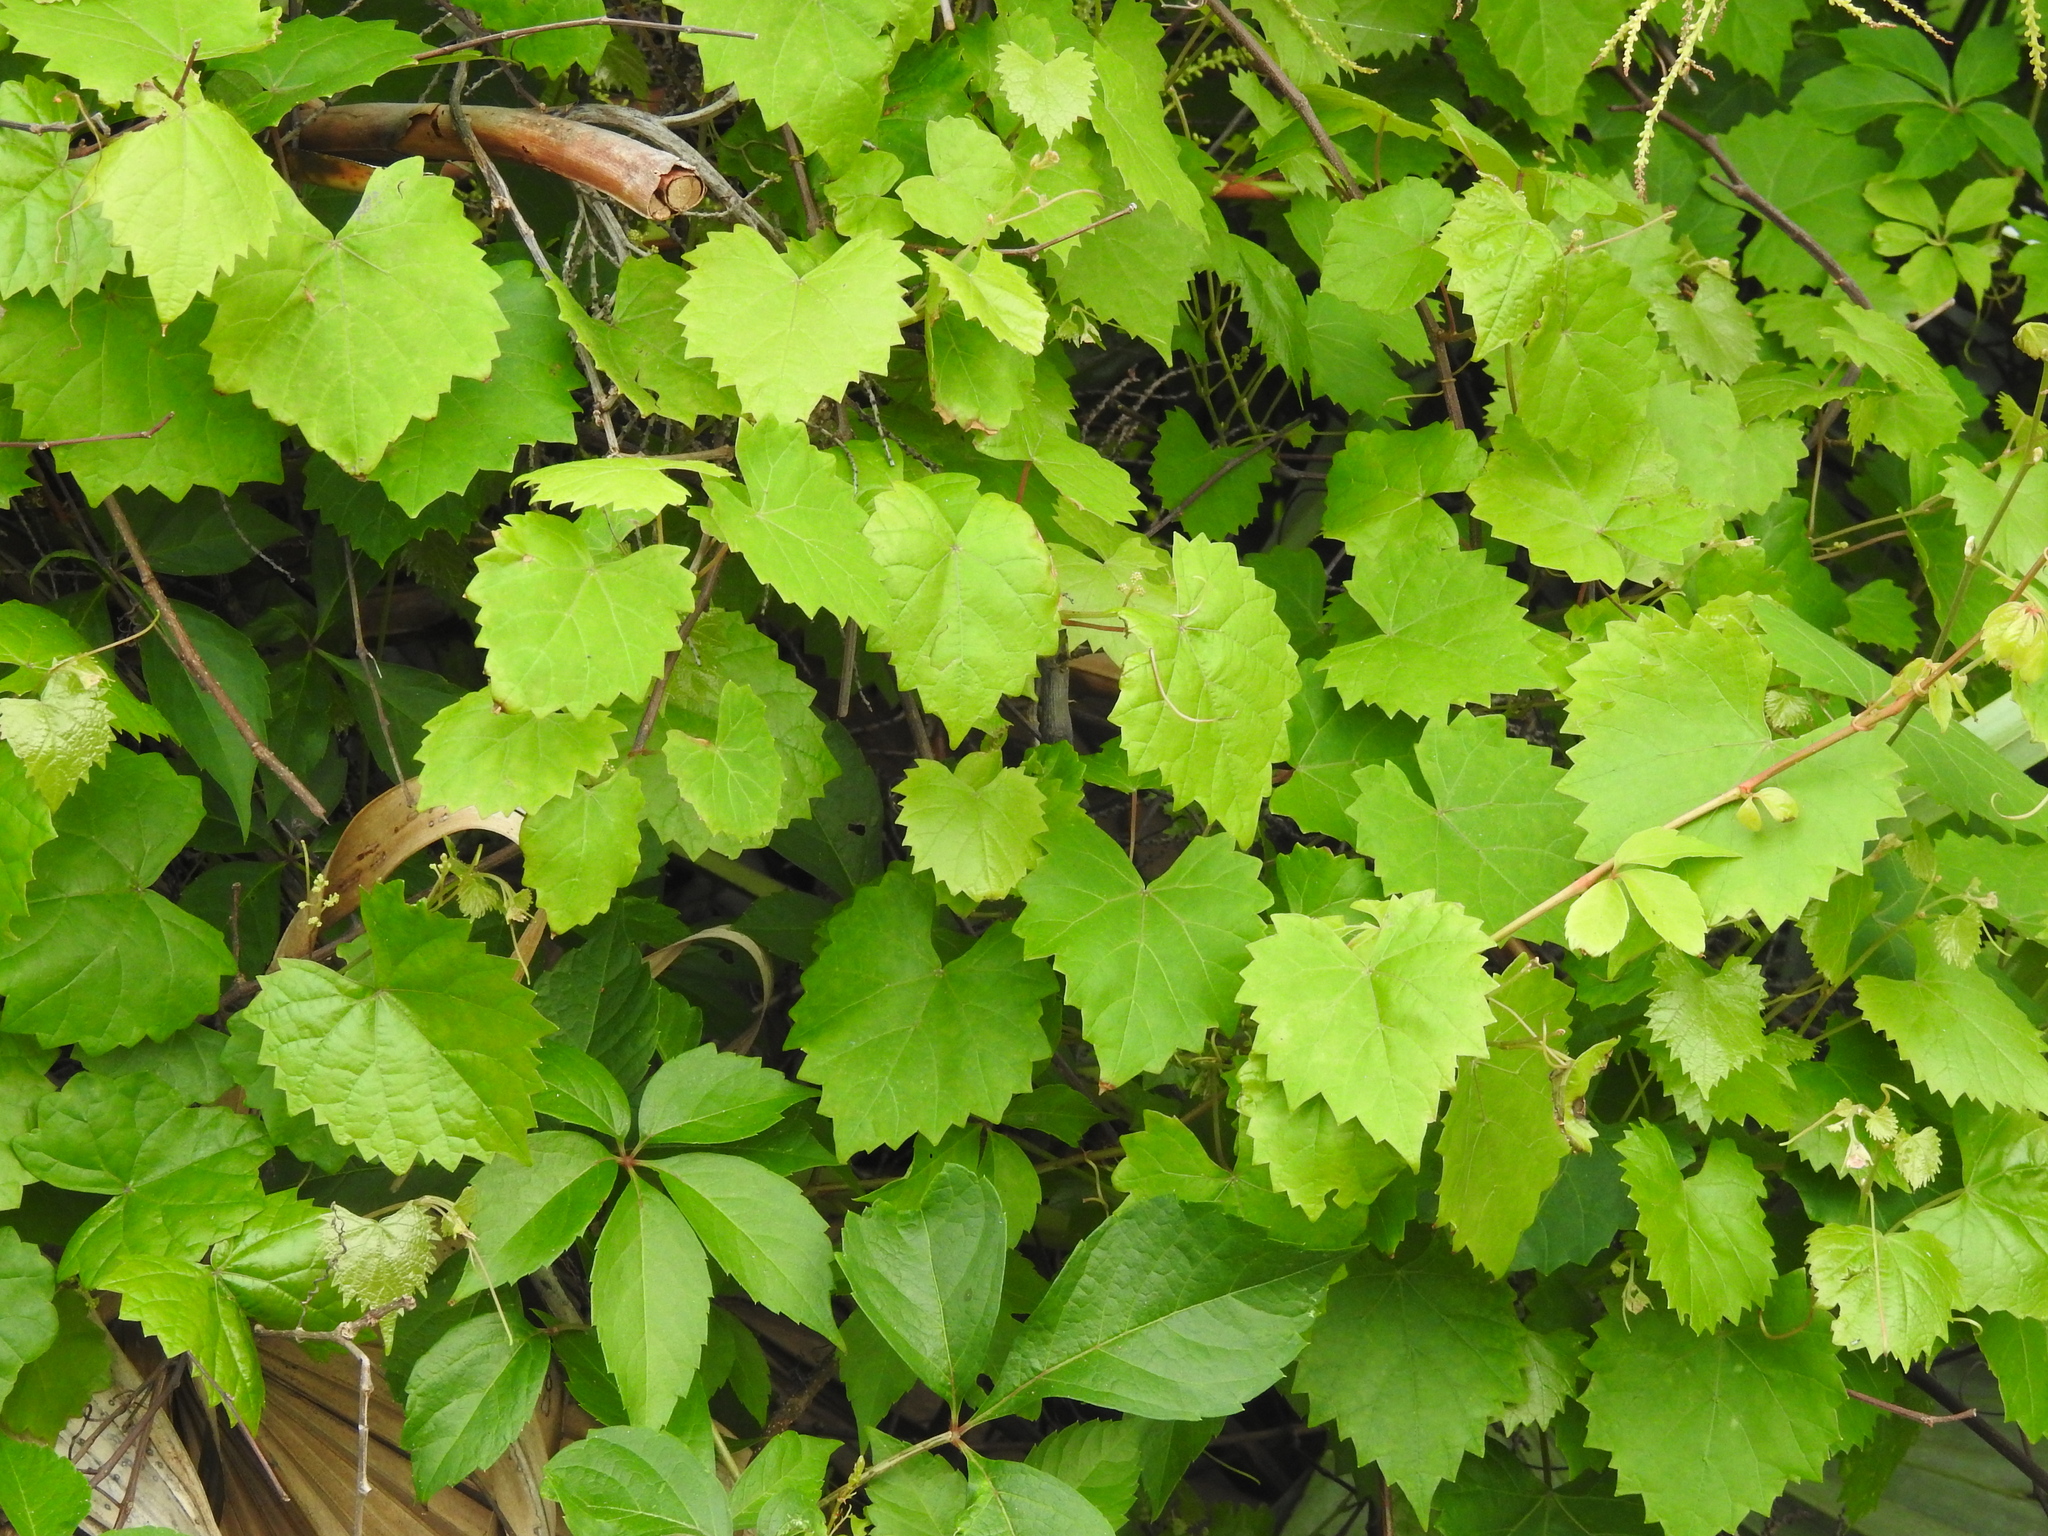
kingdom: Plantae
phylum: Tracheophyta
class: Magnoliopsida
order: Vitales
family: Vitaceae
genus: Vitis
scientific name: Vitis rotundifolia
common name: Muscadine grape
